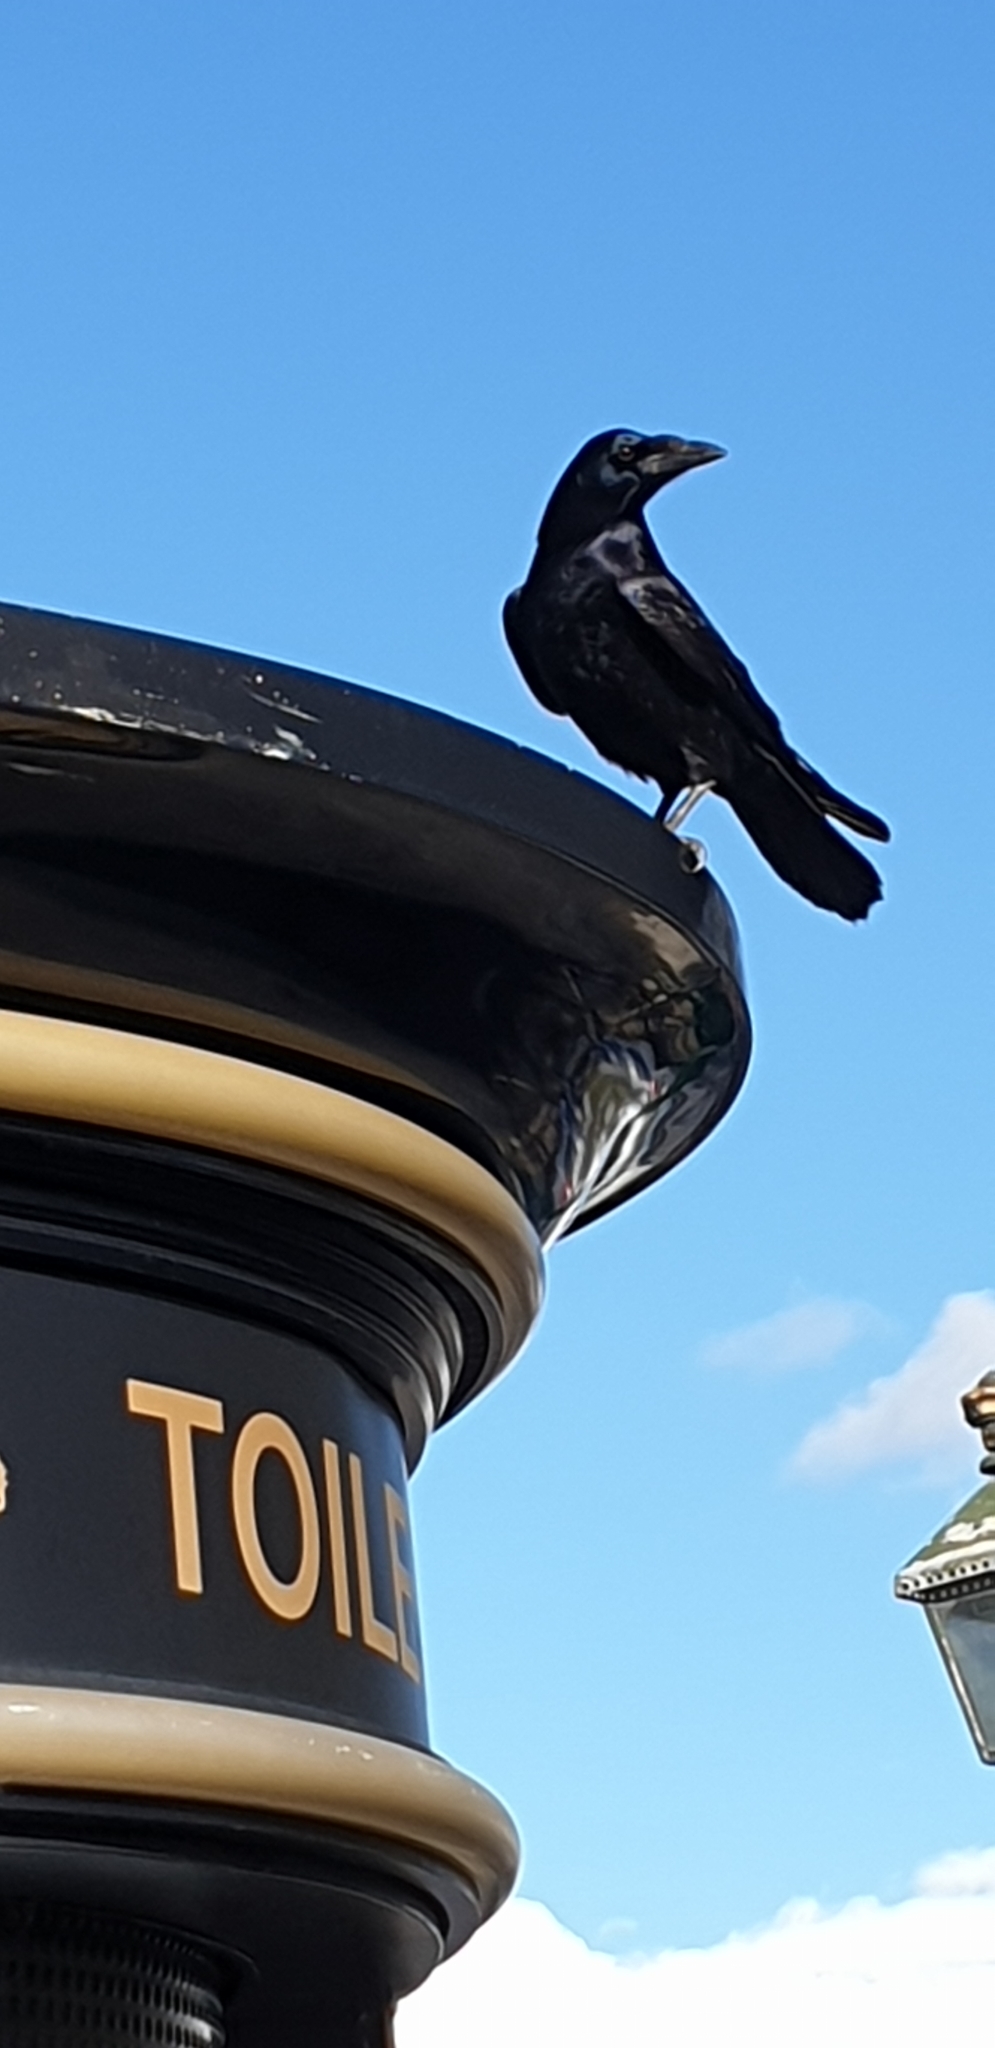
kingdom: Animalia
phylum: Chordata
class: Aves
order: Passeriformes
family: Corvidae
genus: Corvus
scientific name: Corvus frugilegus
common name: Rook
